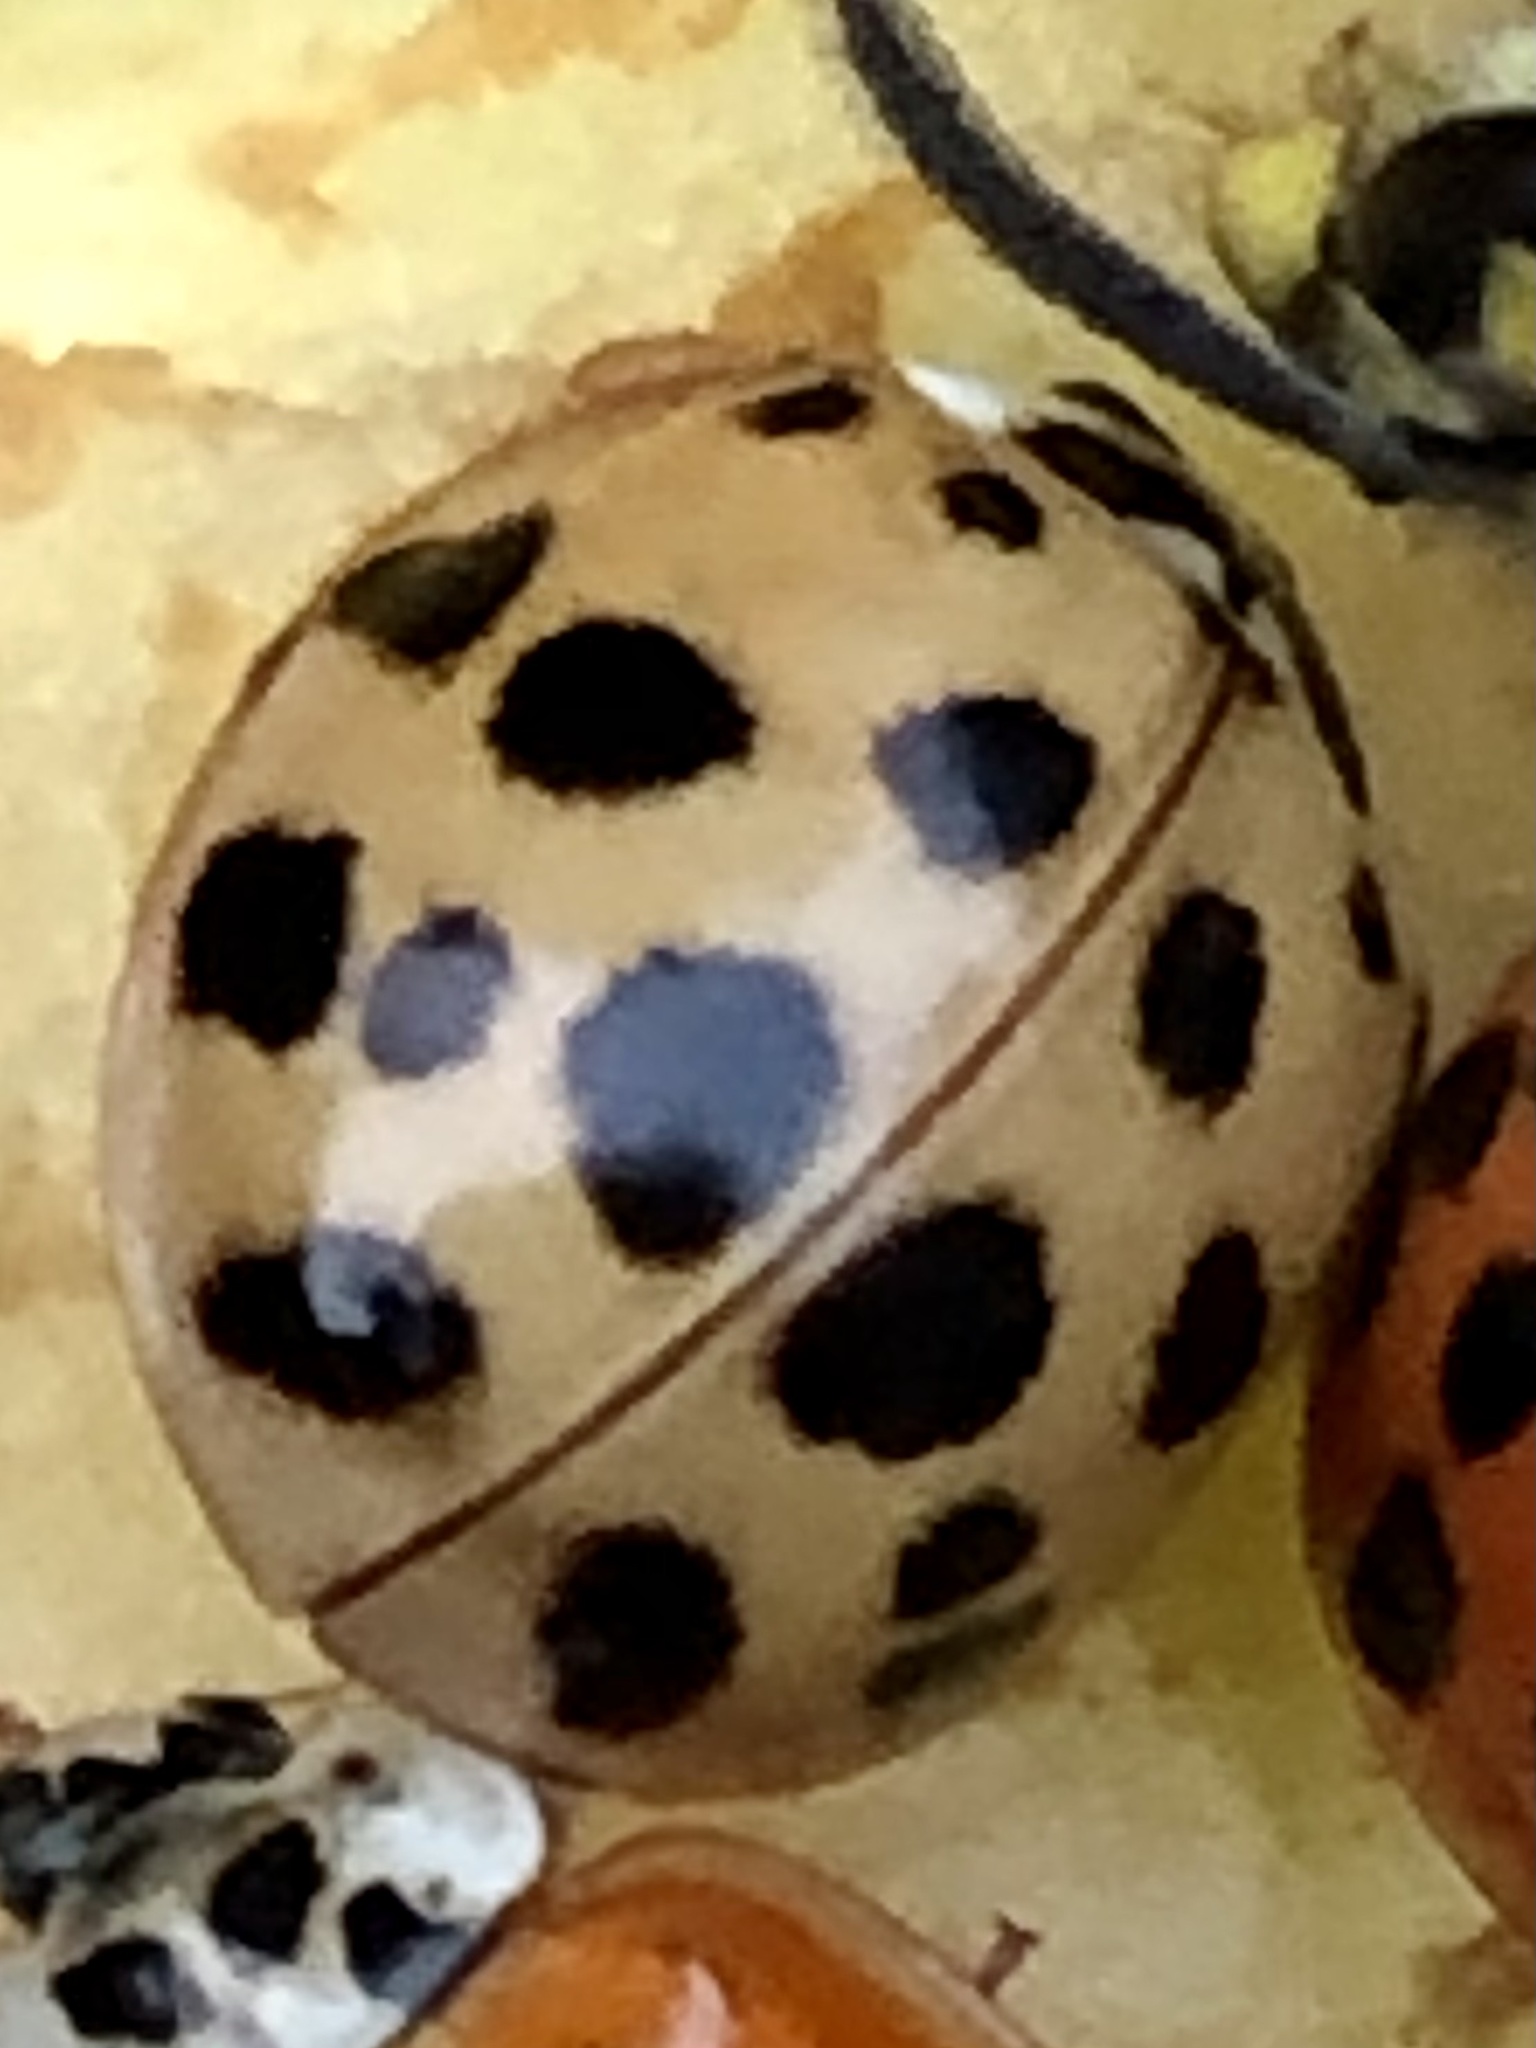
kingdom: Animalia
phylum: Arthropoda
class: Insecta
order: Coleoptera
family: Coccinellidae
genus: Harmonia
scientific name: Harmonia axyridis
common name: Harlequin ladybird
